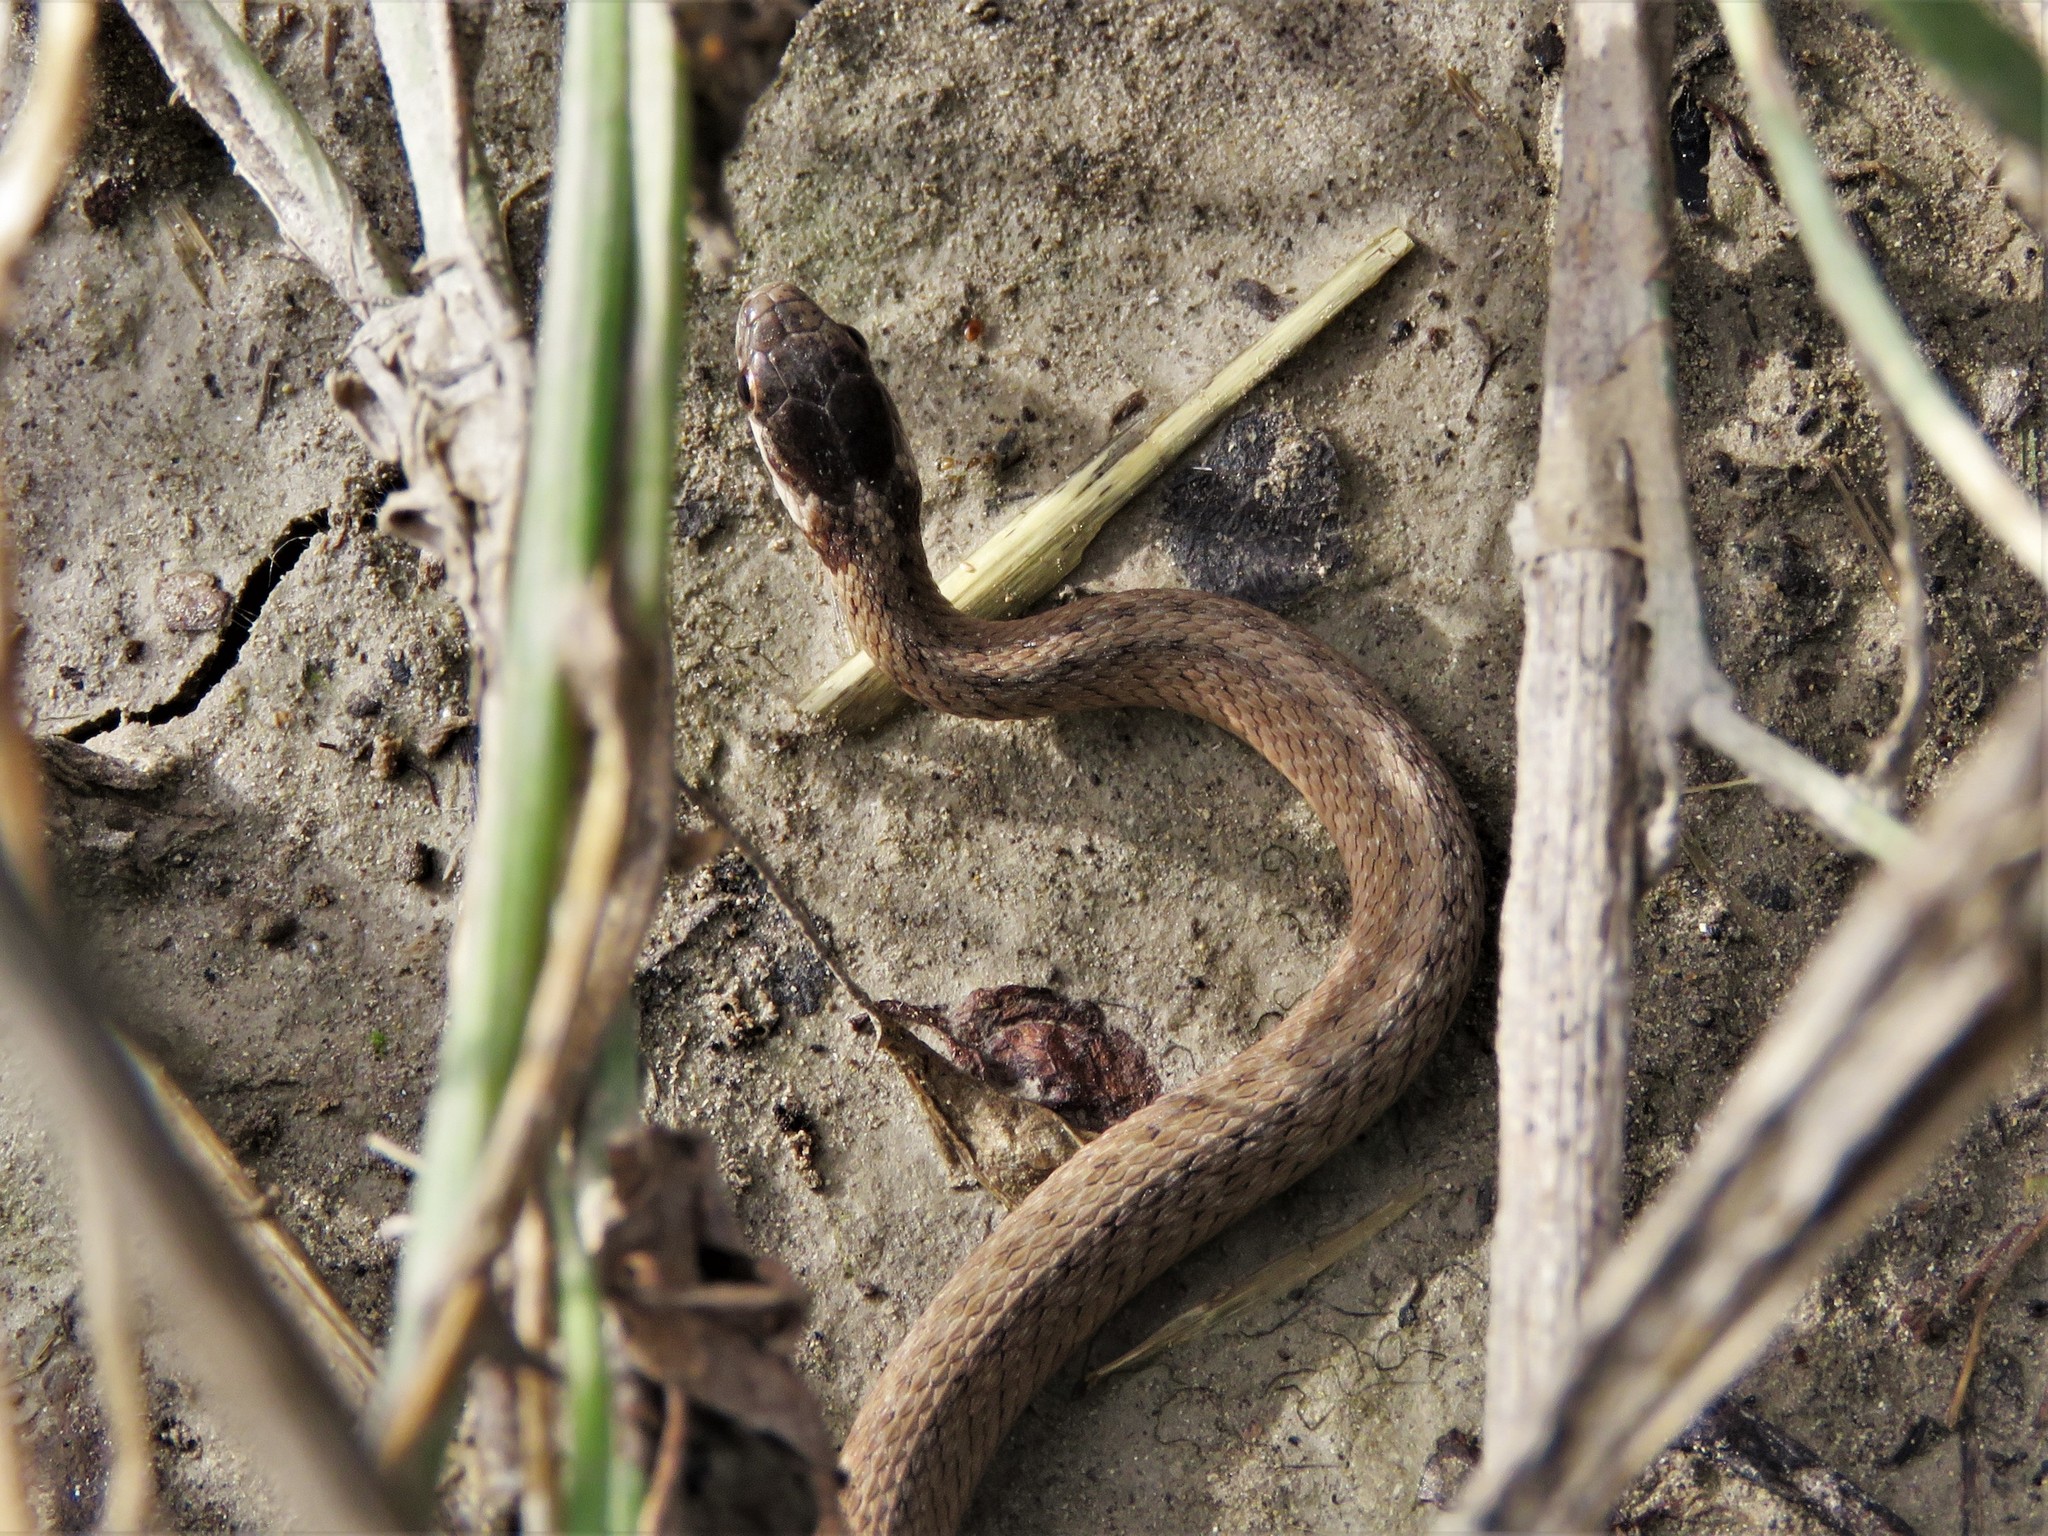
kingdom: Animalia
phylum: Chordata
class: Squamata
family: Colubridae
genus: Storeria
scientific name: Storeria dekayi
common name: (dekay’s) brown snake
